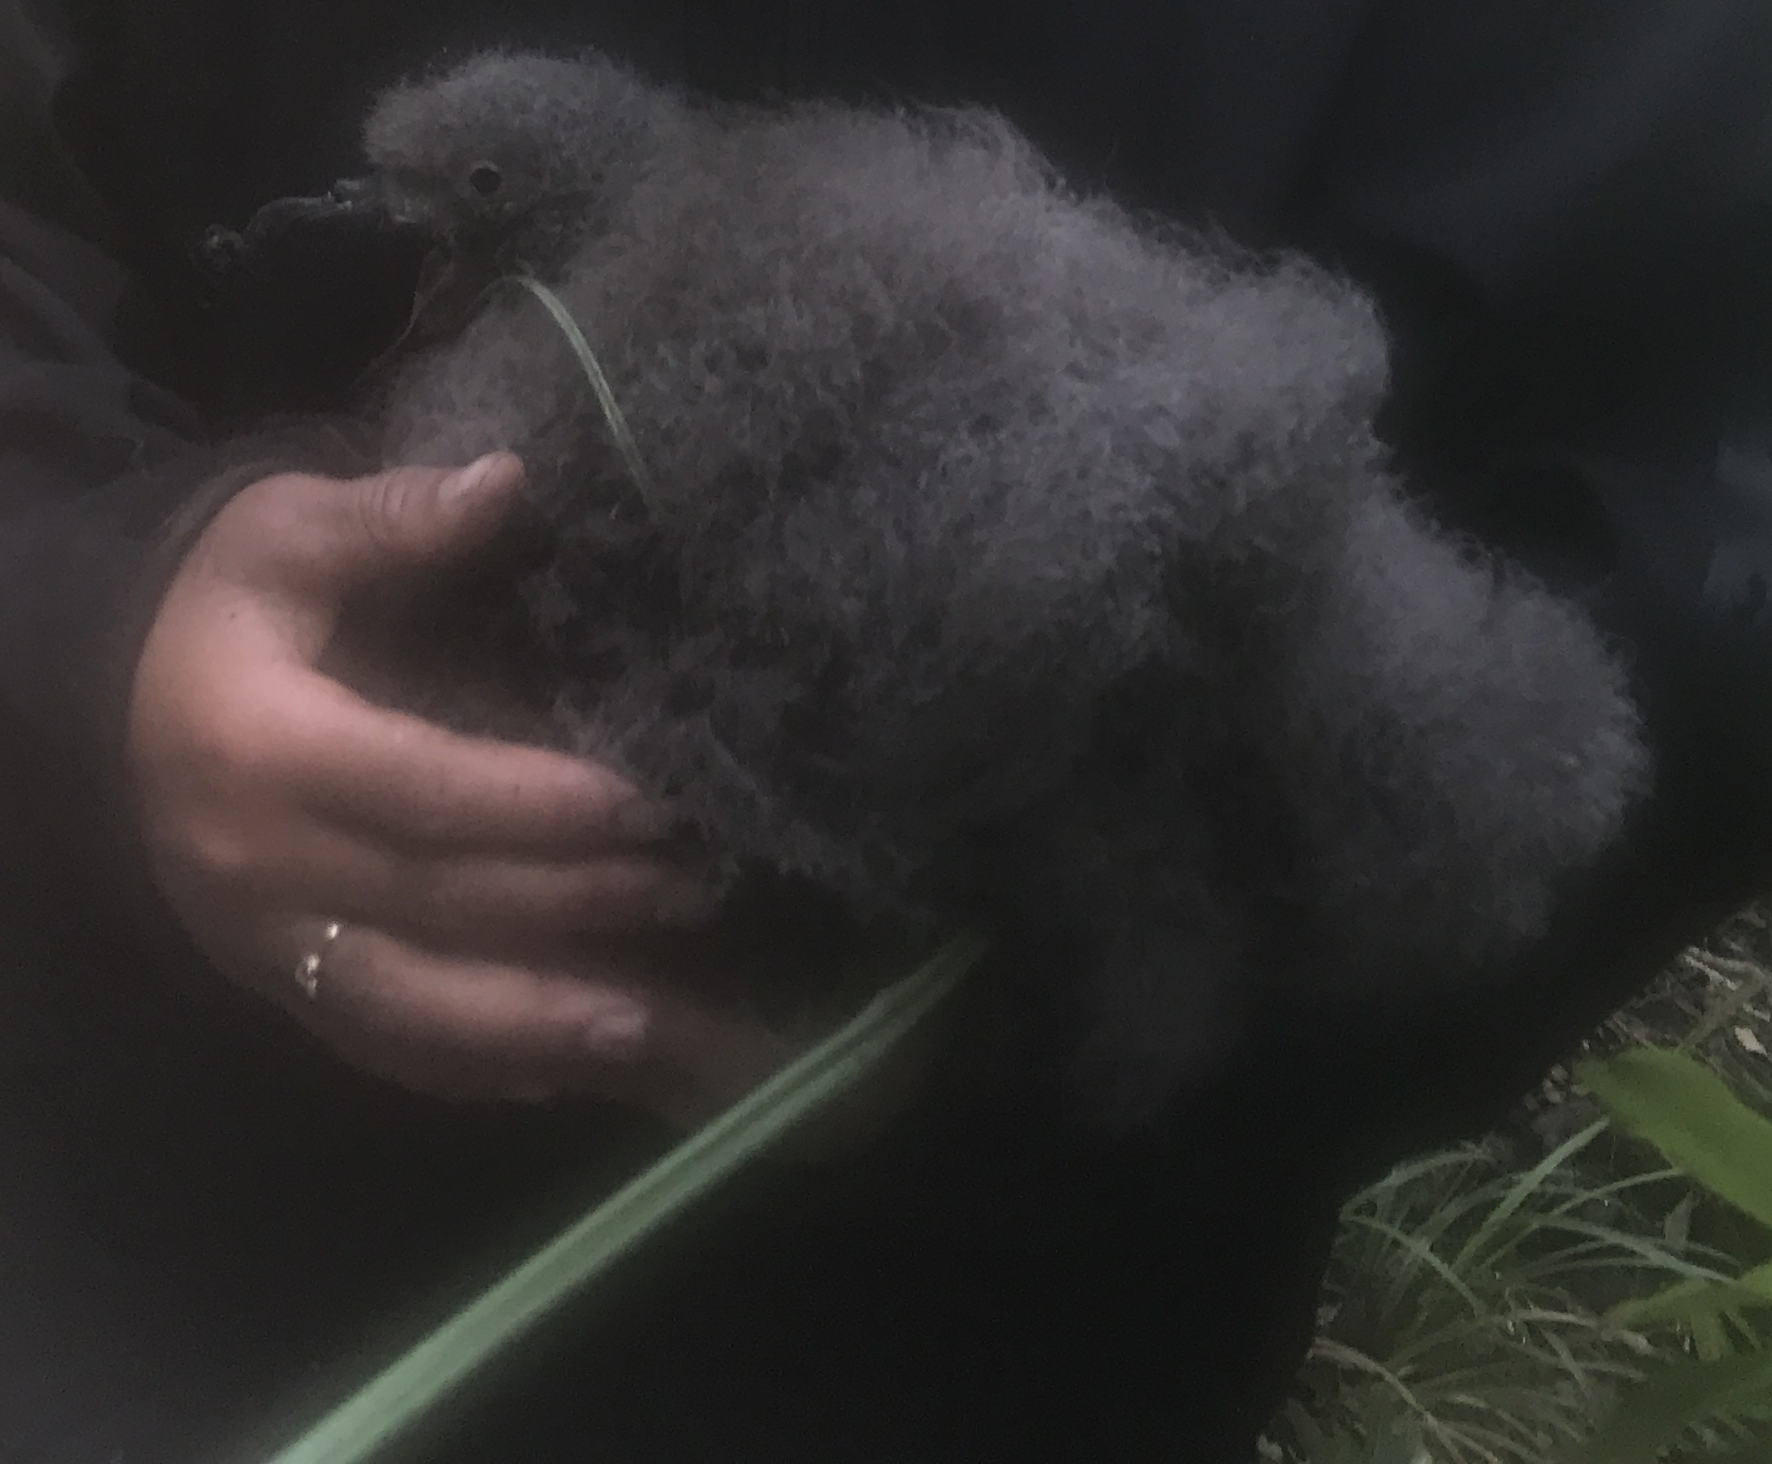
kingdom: Animalia
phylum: Chordata
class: Aves
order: Procellariiformes
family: Procellariidae
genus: Pterodroma
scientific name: Pterodroma macroptera
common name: Great-winged petrel
